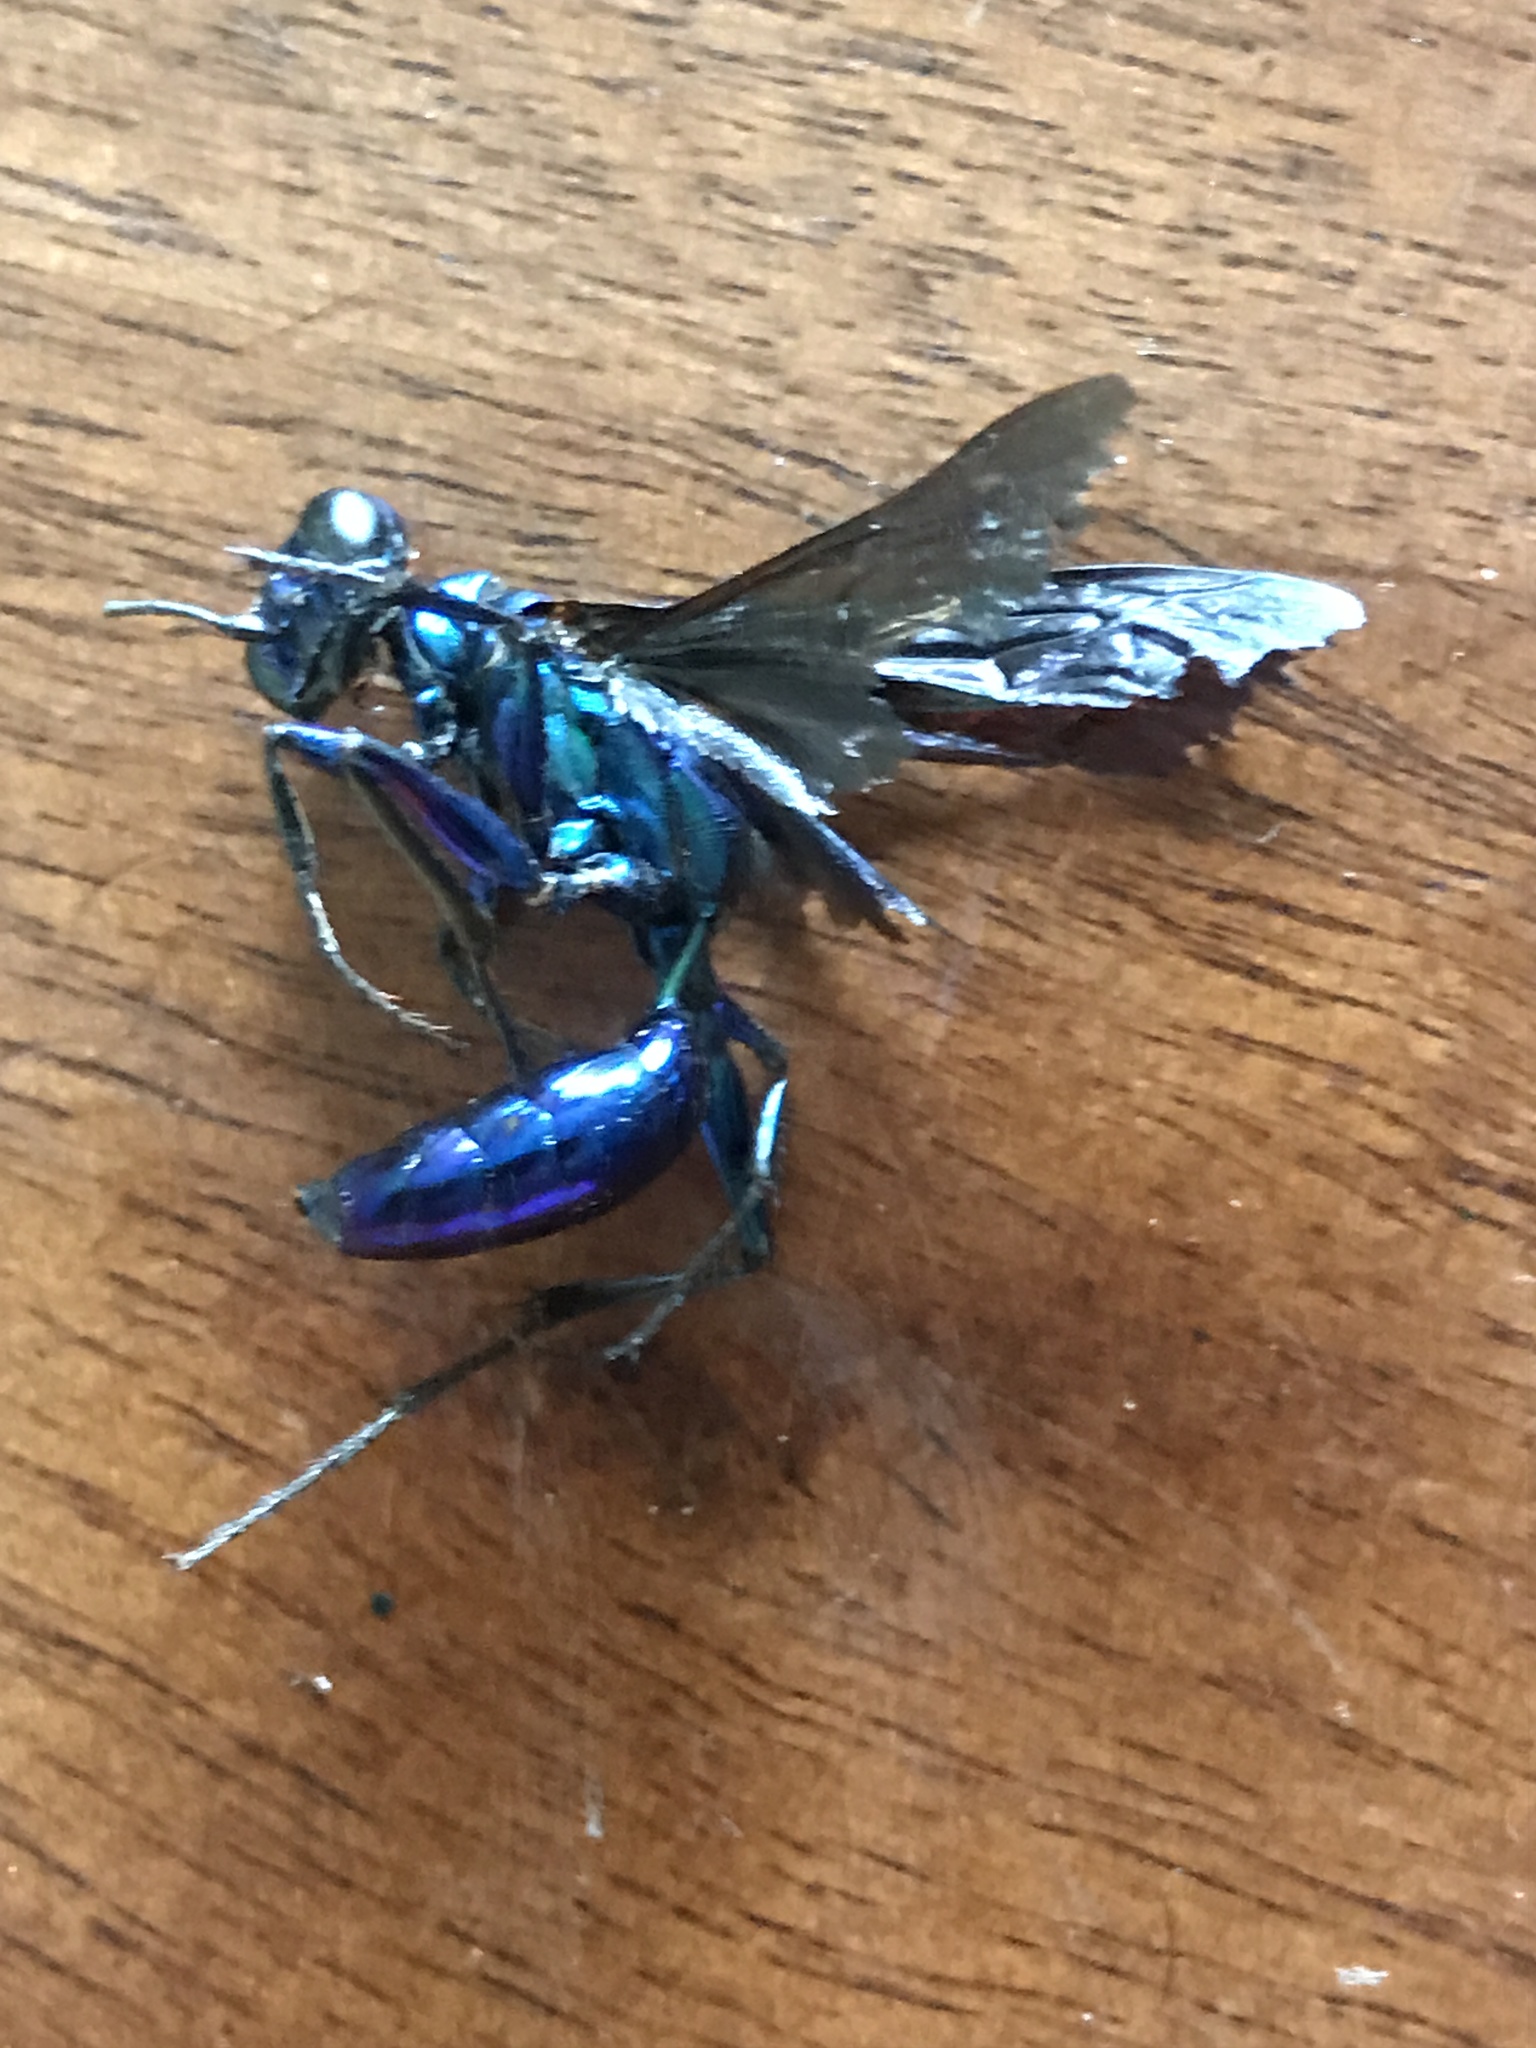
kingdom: Animalia
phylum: Arthropoda
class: Insecta
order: Hymenoptera
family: Sphecidae
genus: Chlorion
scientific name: Chlorion aerarium
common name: Steel-blue cricket hunter
